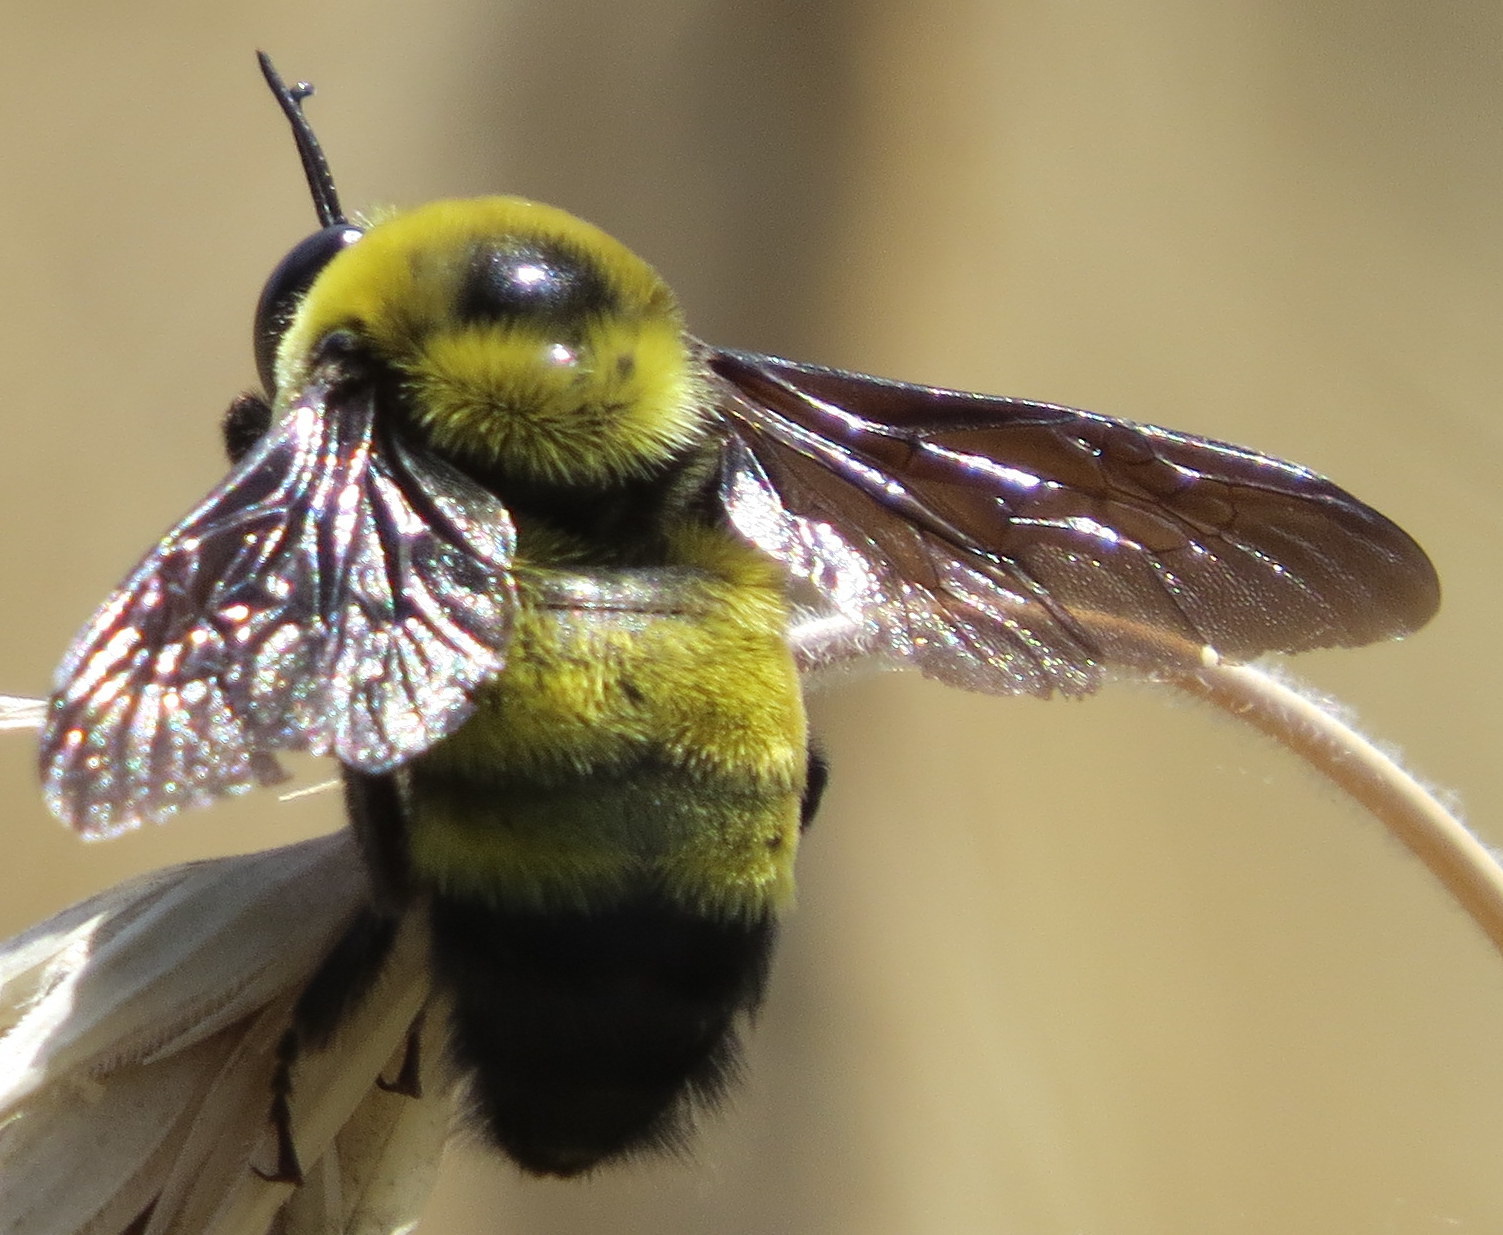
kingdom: Animalia
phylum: Arthropoda
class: Insecta
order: Hymenoptera
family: Apidae
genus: Bombus
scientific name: Bombus auricomus
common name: Black and gold bumble bee
